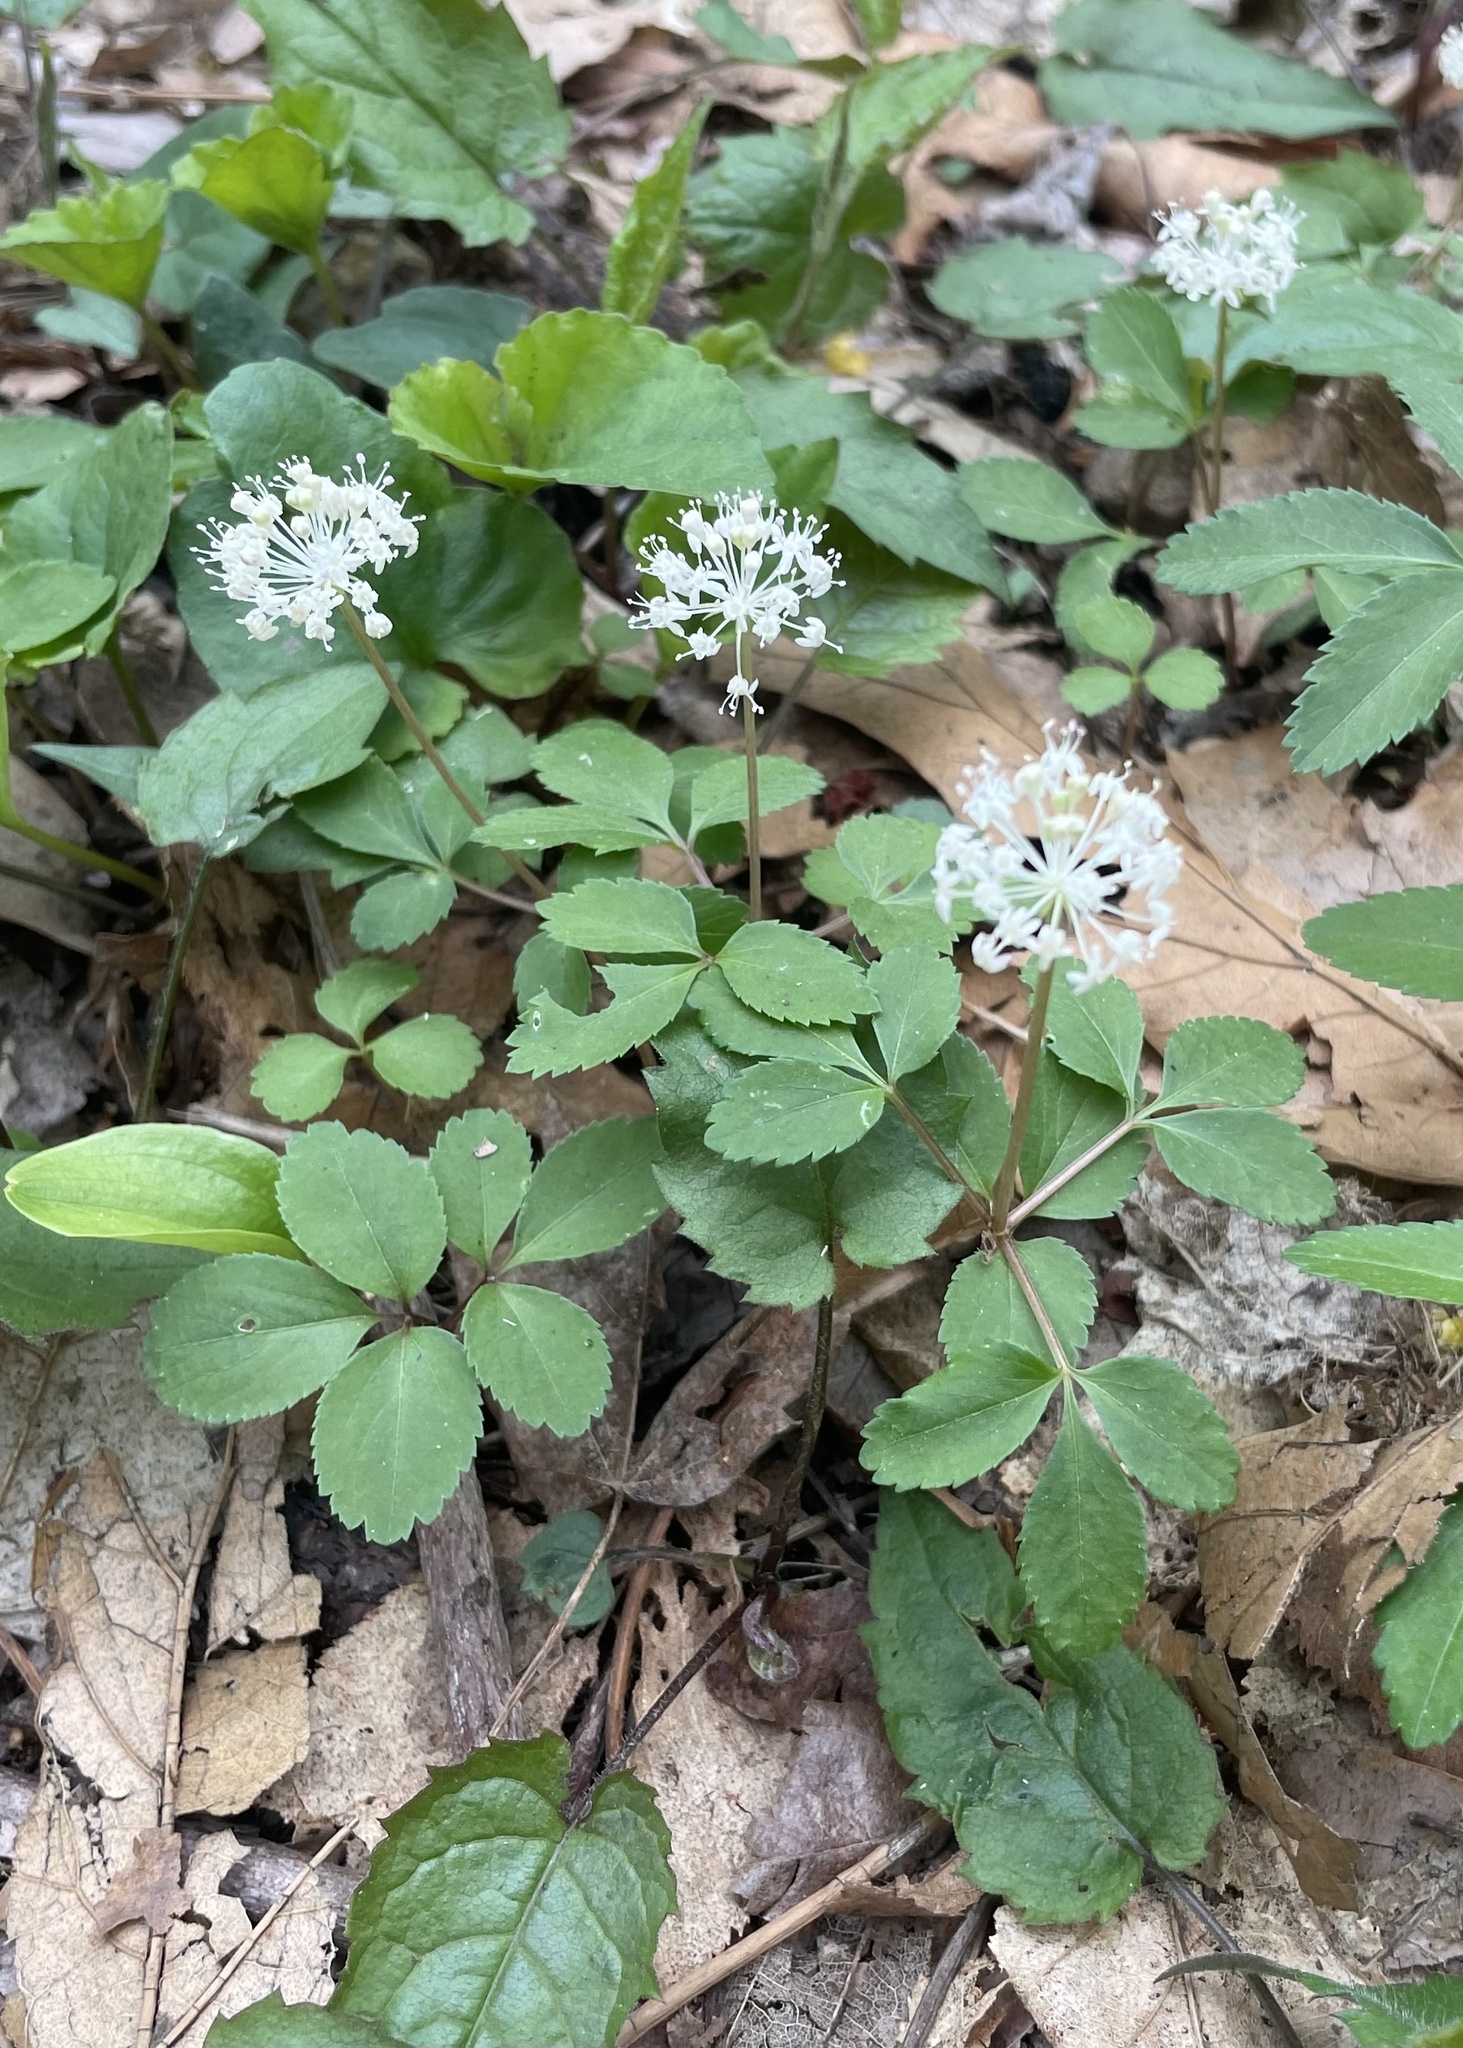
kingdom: Plantae
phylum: Tracheophyta
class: Magnoliopsida
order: Apiales
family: Araliaceae
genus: Panax
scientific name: Panax trifolius
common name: Dwarf ginseng
